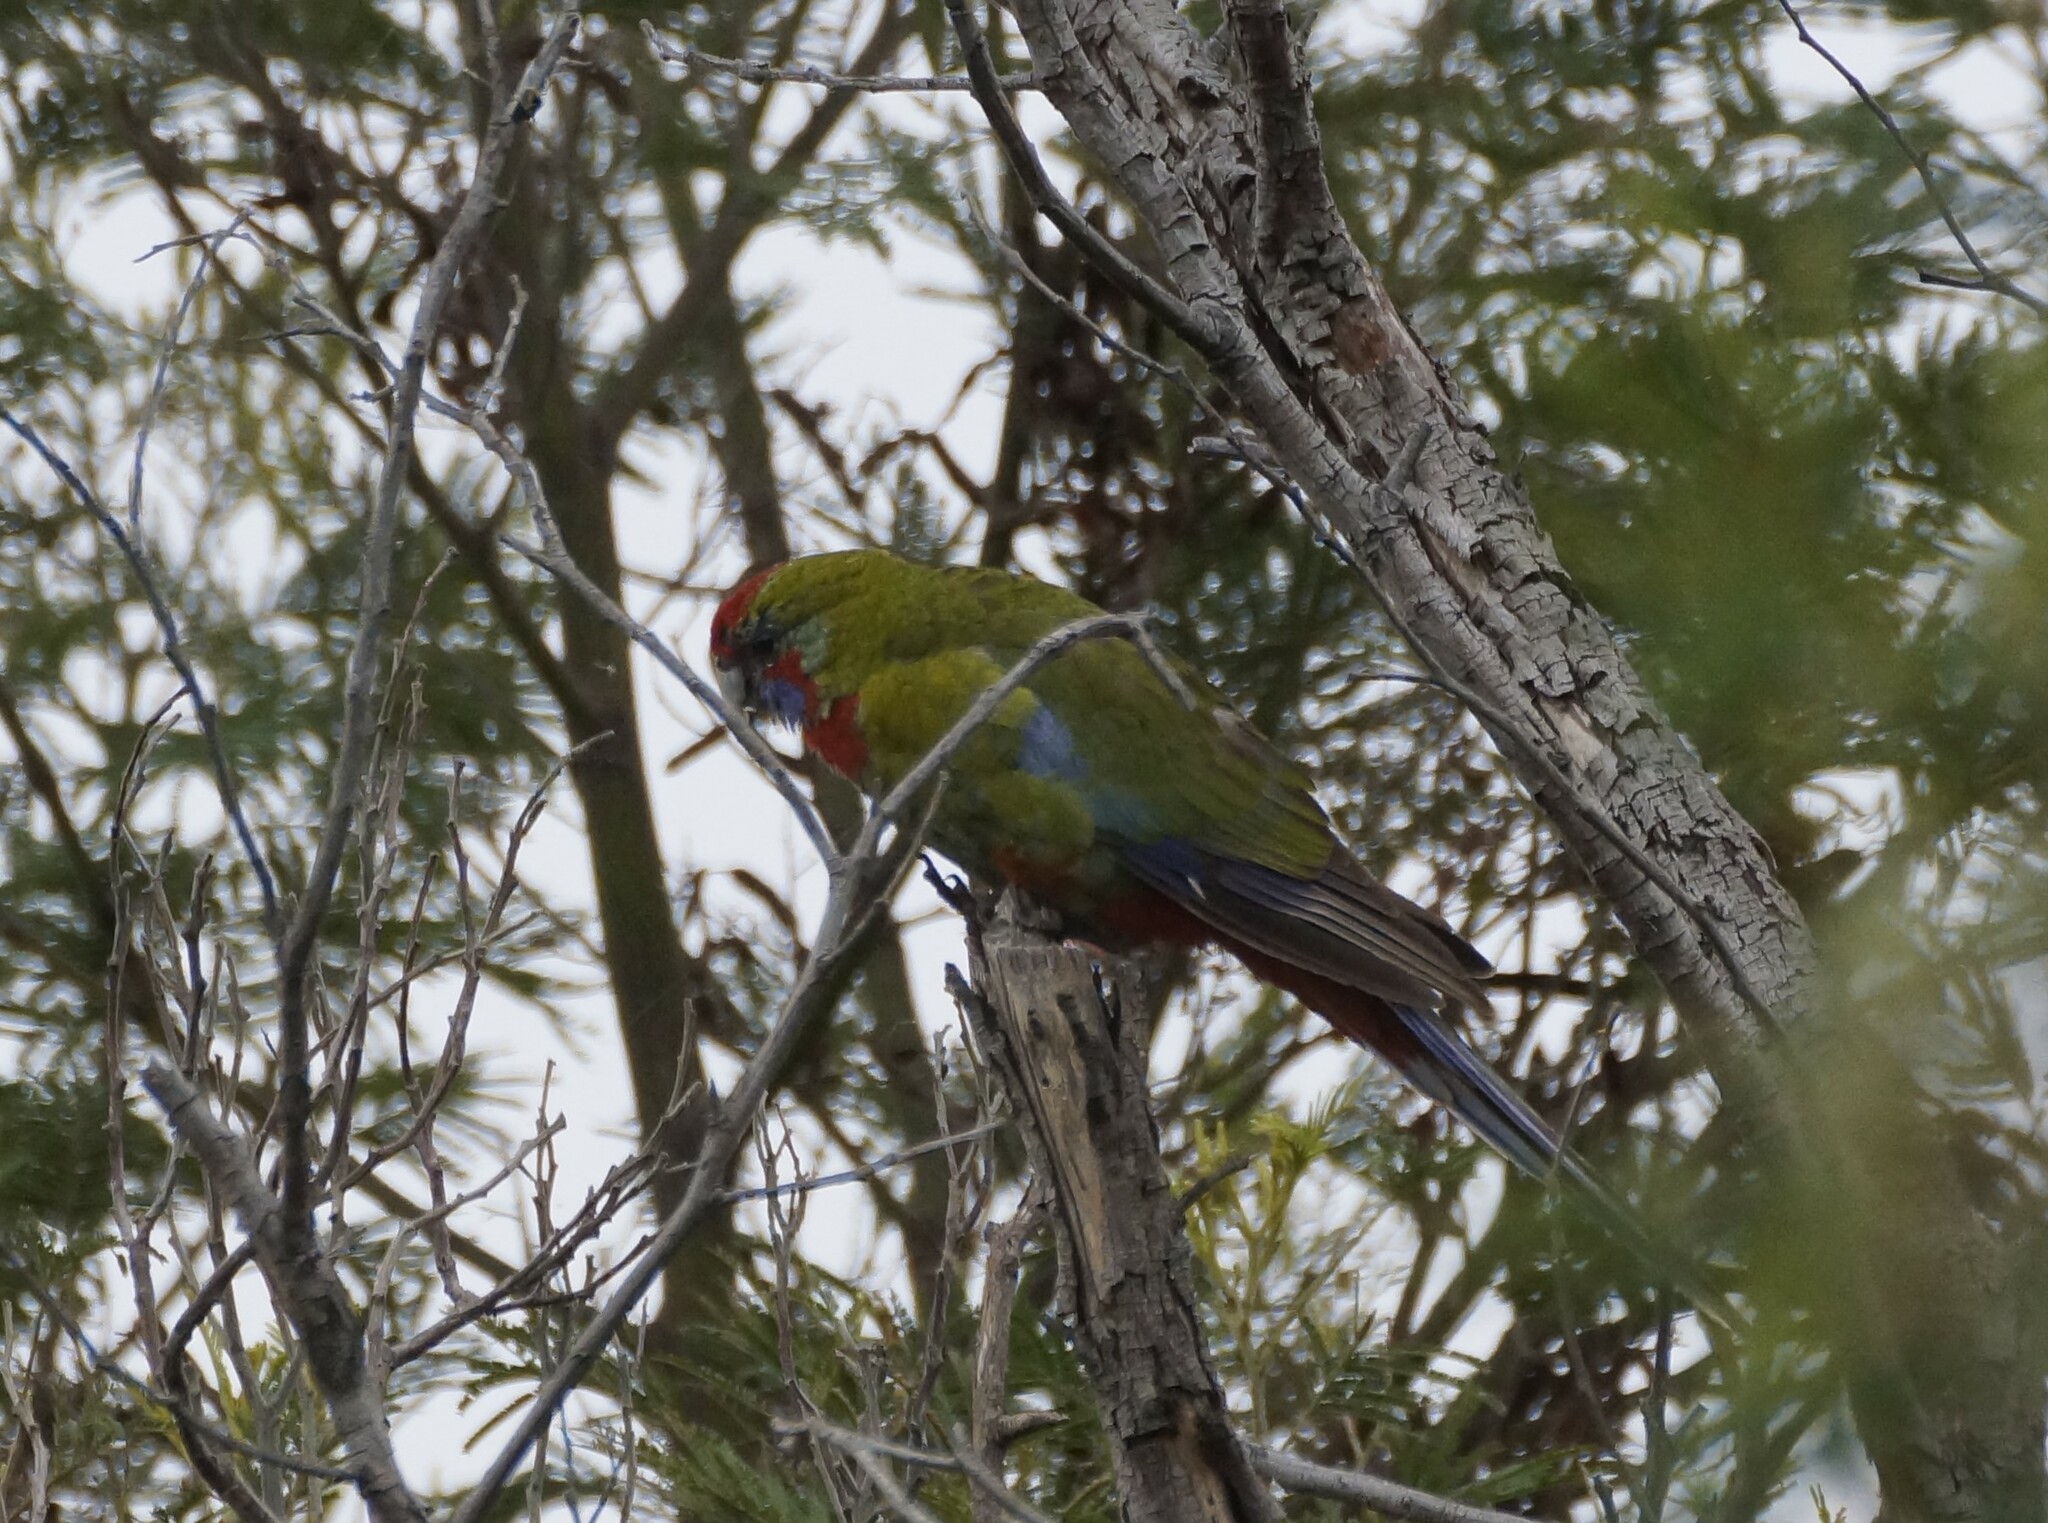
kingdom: Animalia
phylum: Chordata
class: Aves
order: Psittaciformes
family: Psittacidae
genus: Platycercus
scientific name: Platycercus elegans
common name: Crimson rosella
